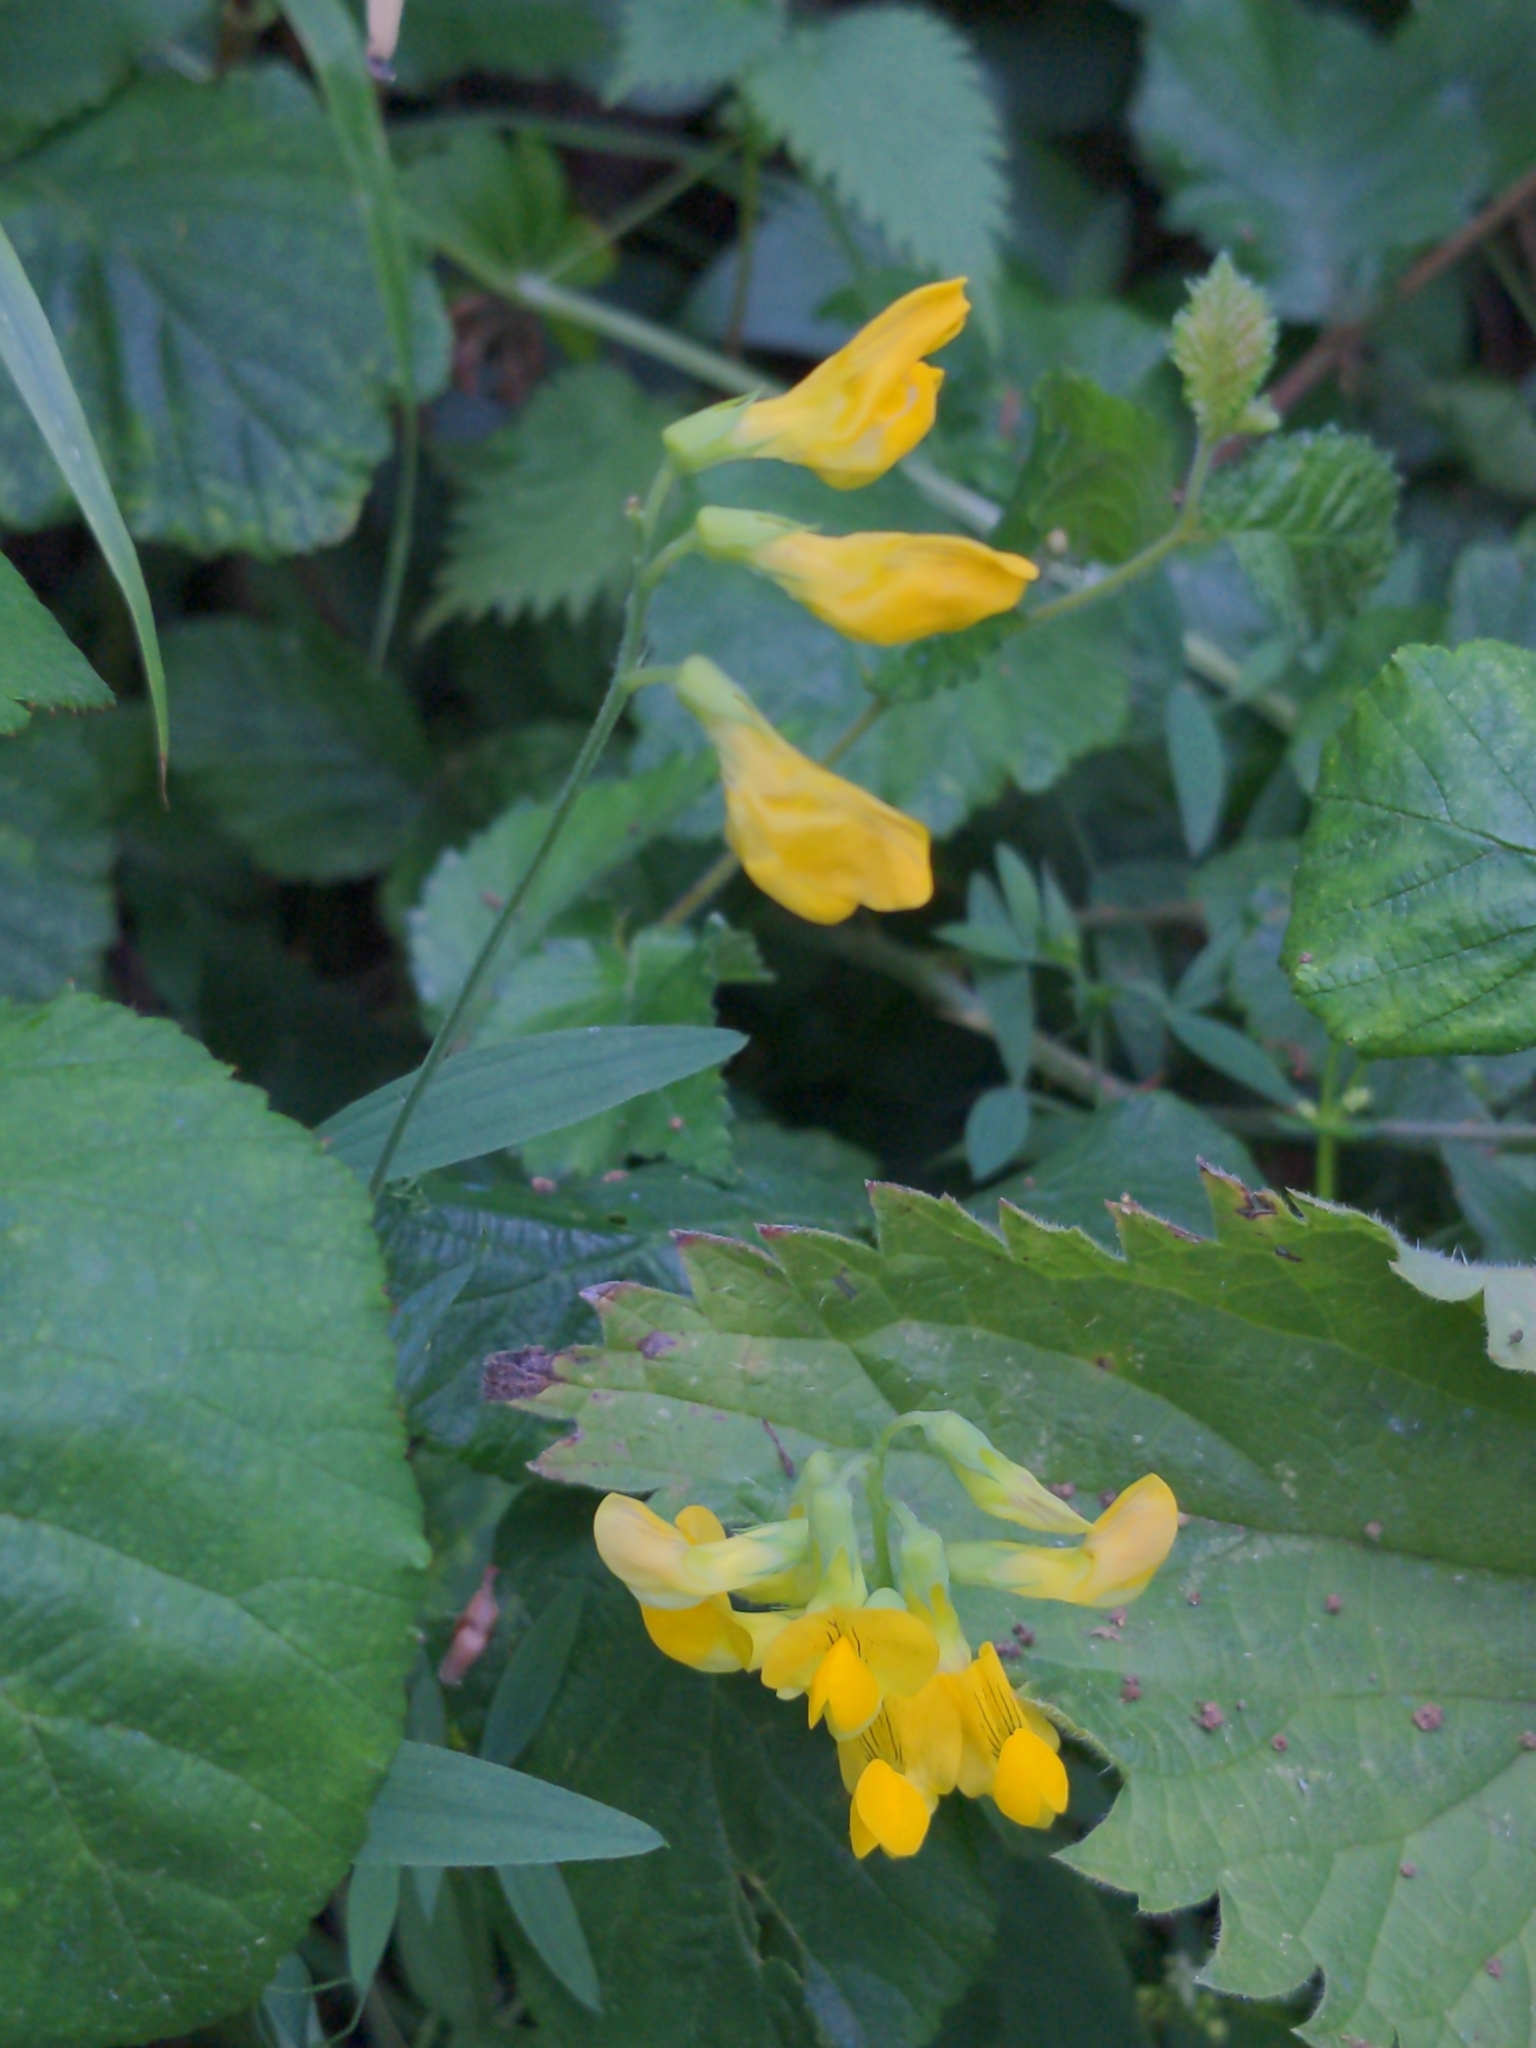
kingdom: Plantae
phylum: Tracheophyta
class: Magnoliopsida
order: Fabales
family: Fabaceae
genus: Lathyrus
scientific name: Lathyrus pratensis
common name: Meadow vetchling
